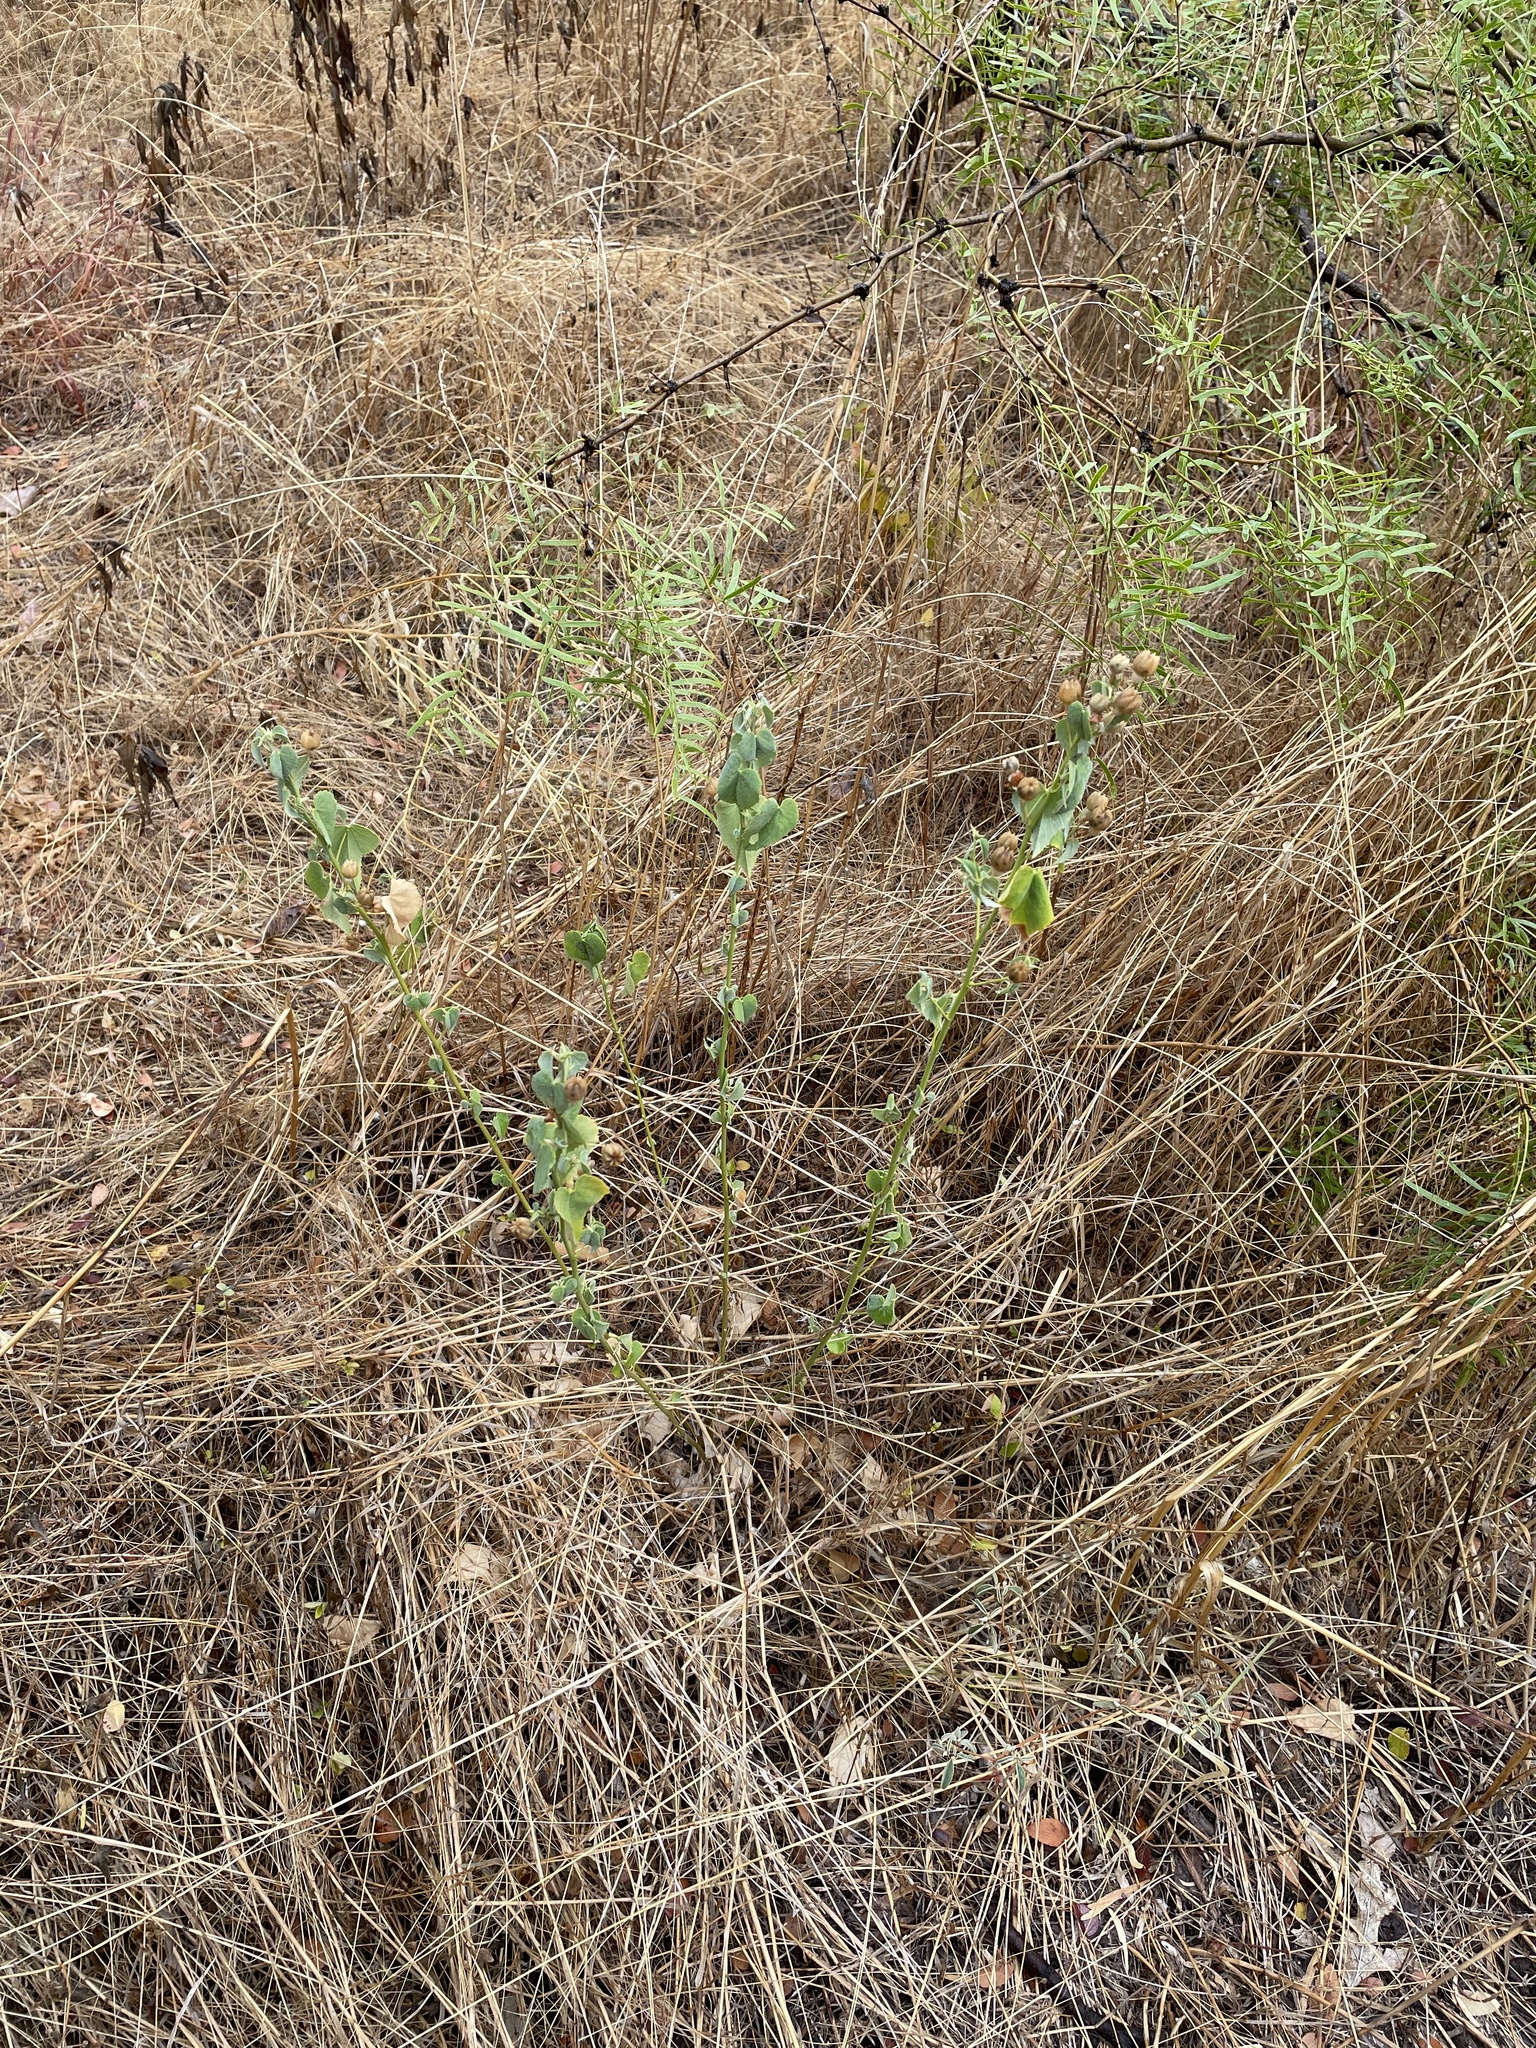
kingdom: Plantae
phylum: Tracheophyta
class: Magnoliopsida
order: Malvales
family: Malvaceae
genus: Abutilon
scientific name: Abutilon fruticosum
